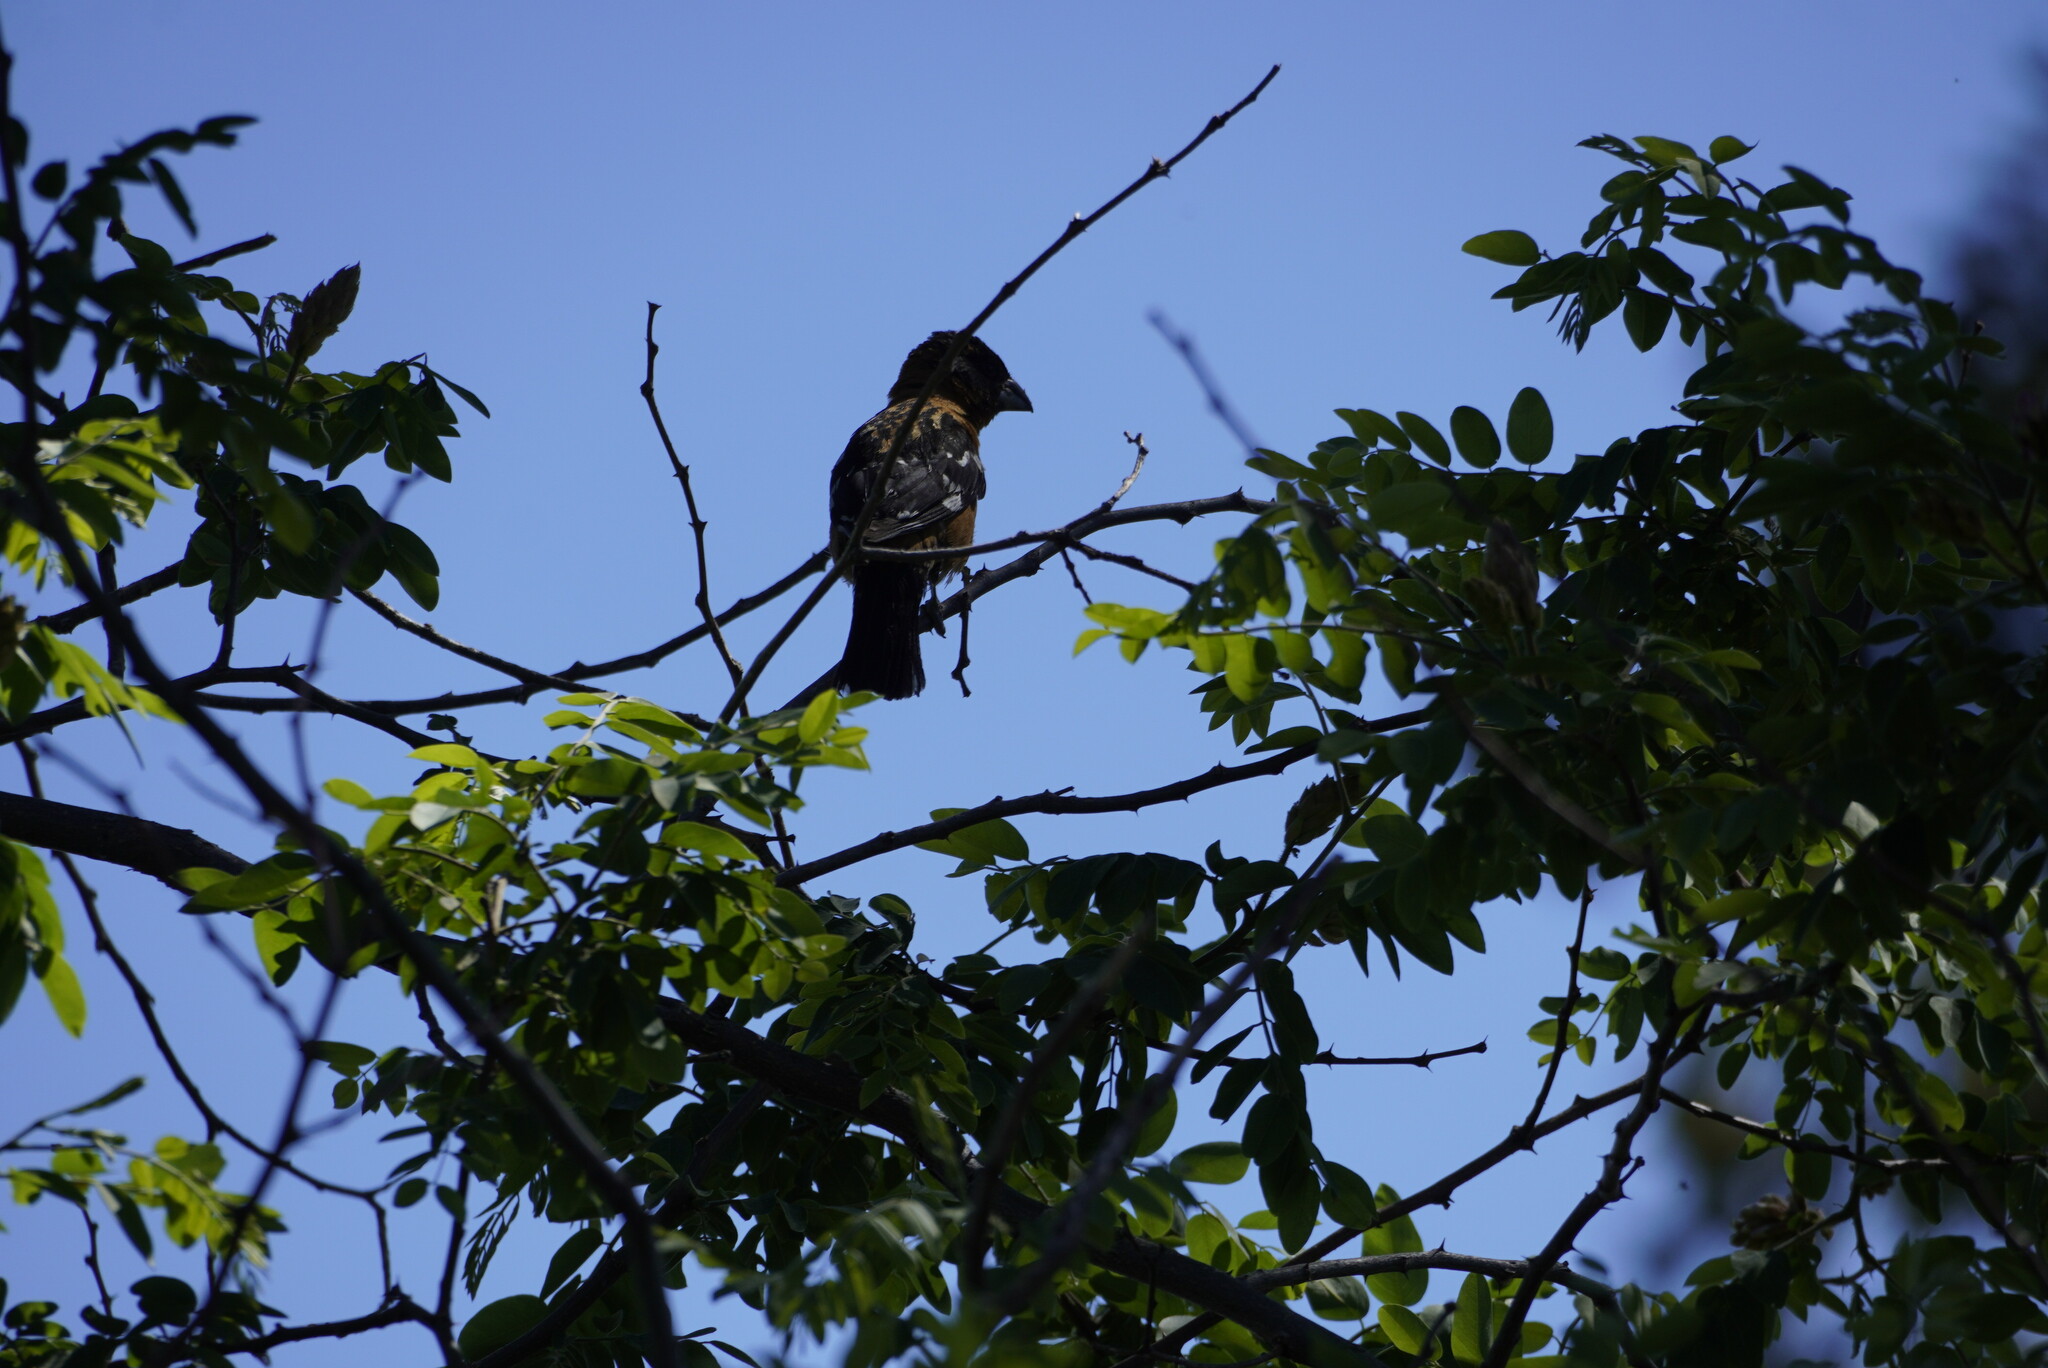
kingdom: Animalia
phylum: Chordata
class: Aves
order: Passeriformes
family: Cardinalidae
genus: Pheucticus
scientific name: Pheucticus melanocephalus
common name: Black-headed grosbeak
